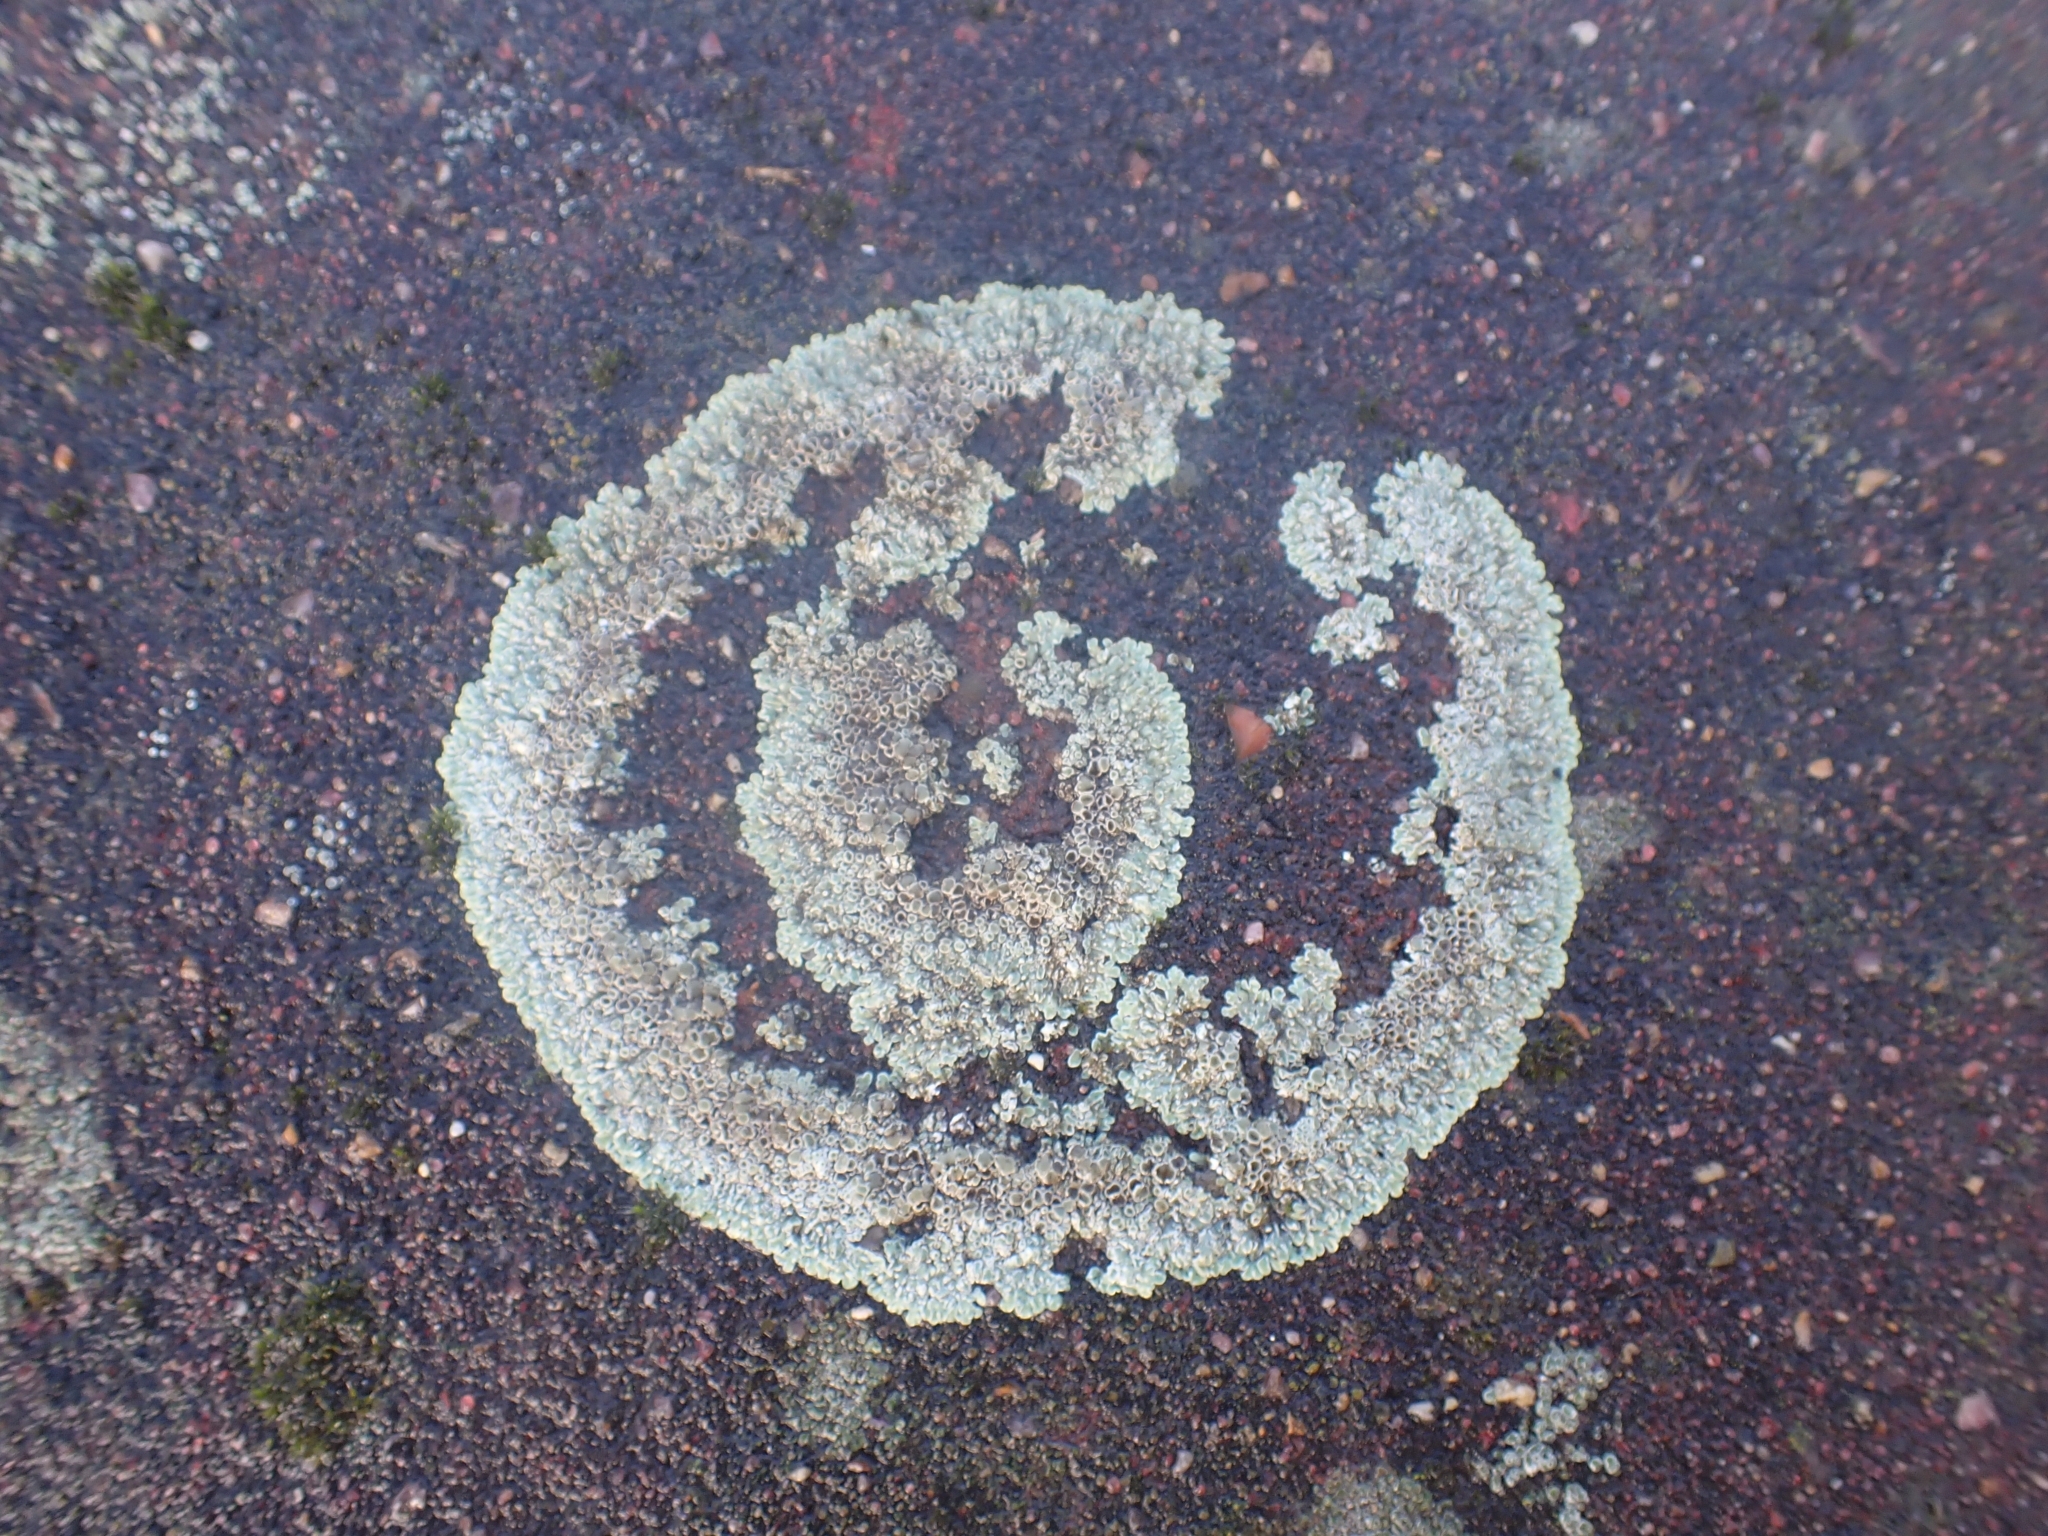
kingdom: Fungi
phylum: Ascomycota
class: Lecanoromycetes
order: Lecanorales
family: Lecanoraceae
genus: Protoparmeliopsis
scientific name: Protoparmeliopsis muralis
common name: Stonewall rim lichen
